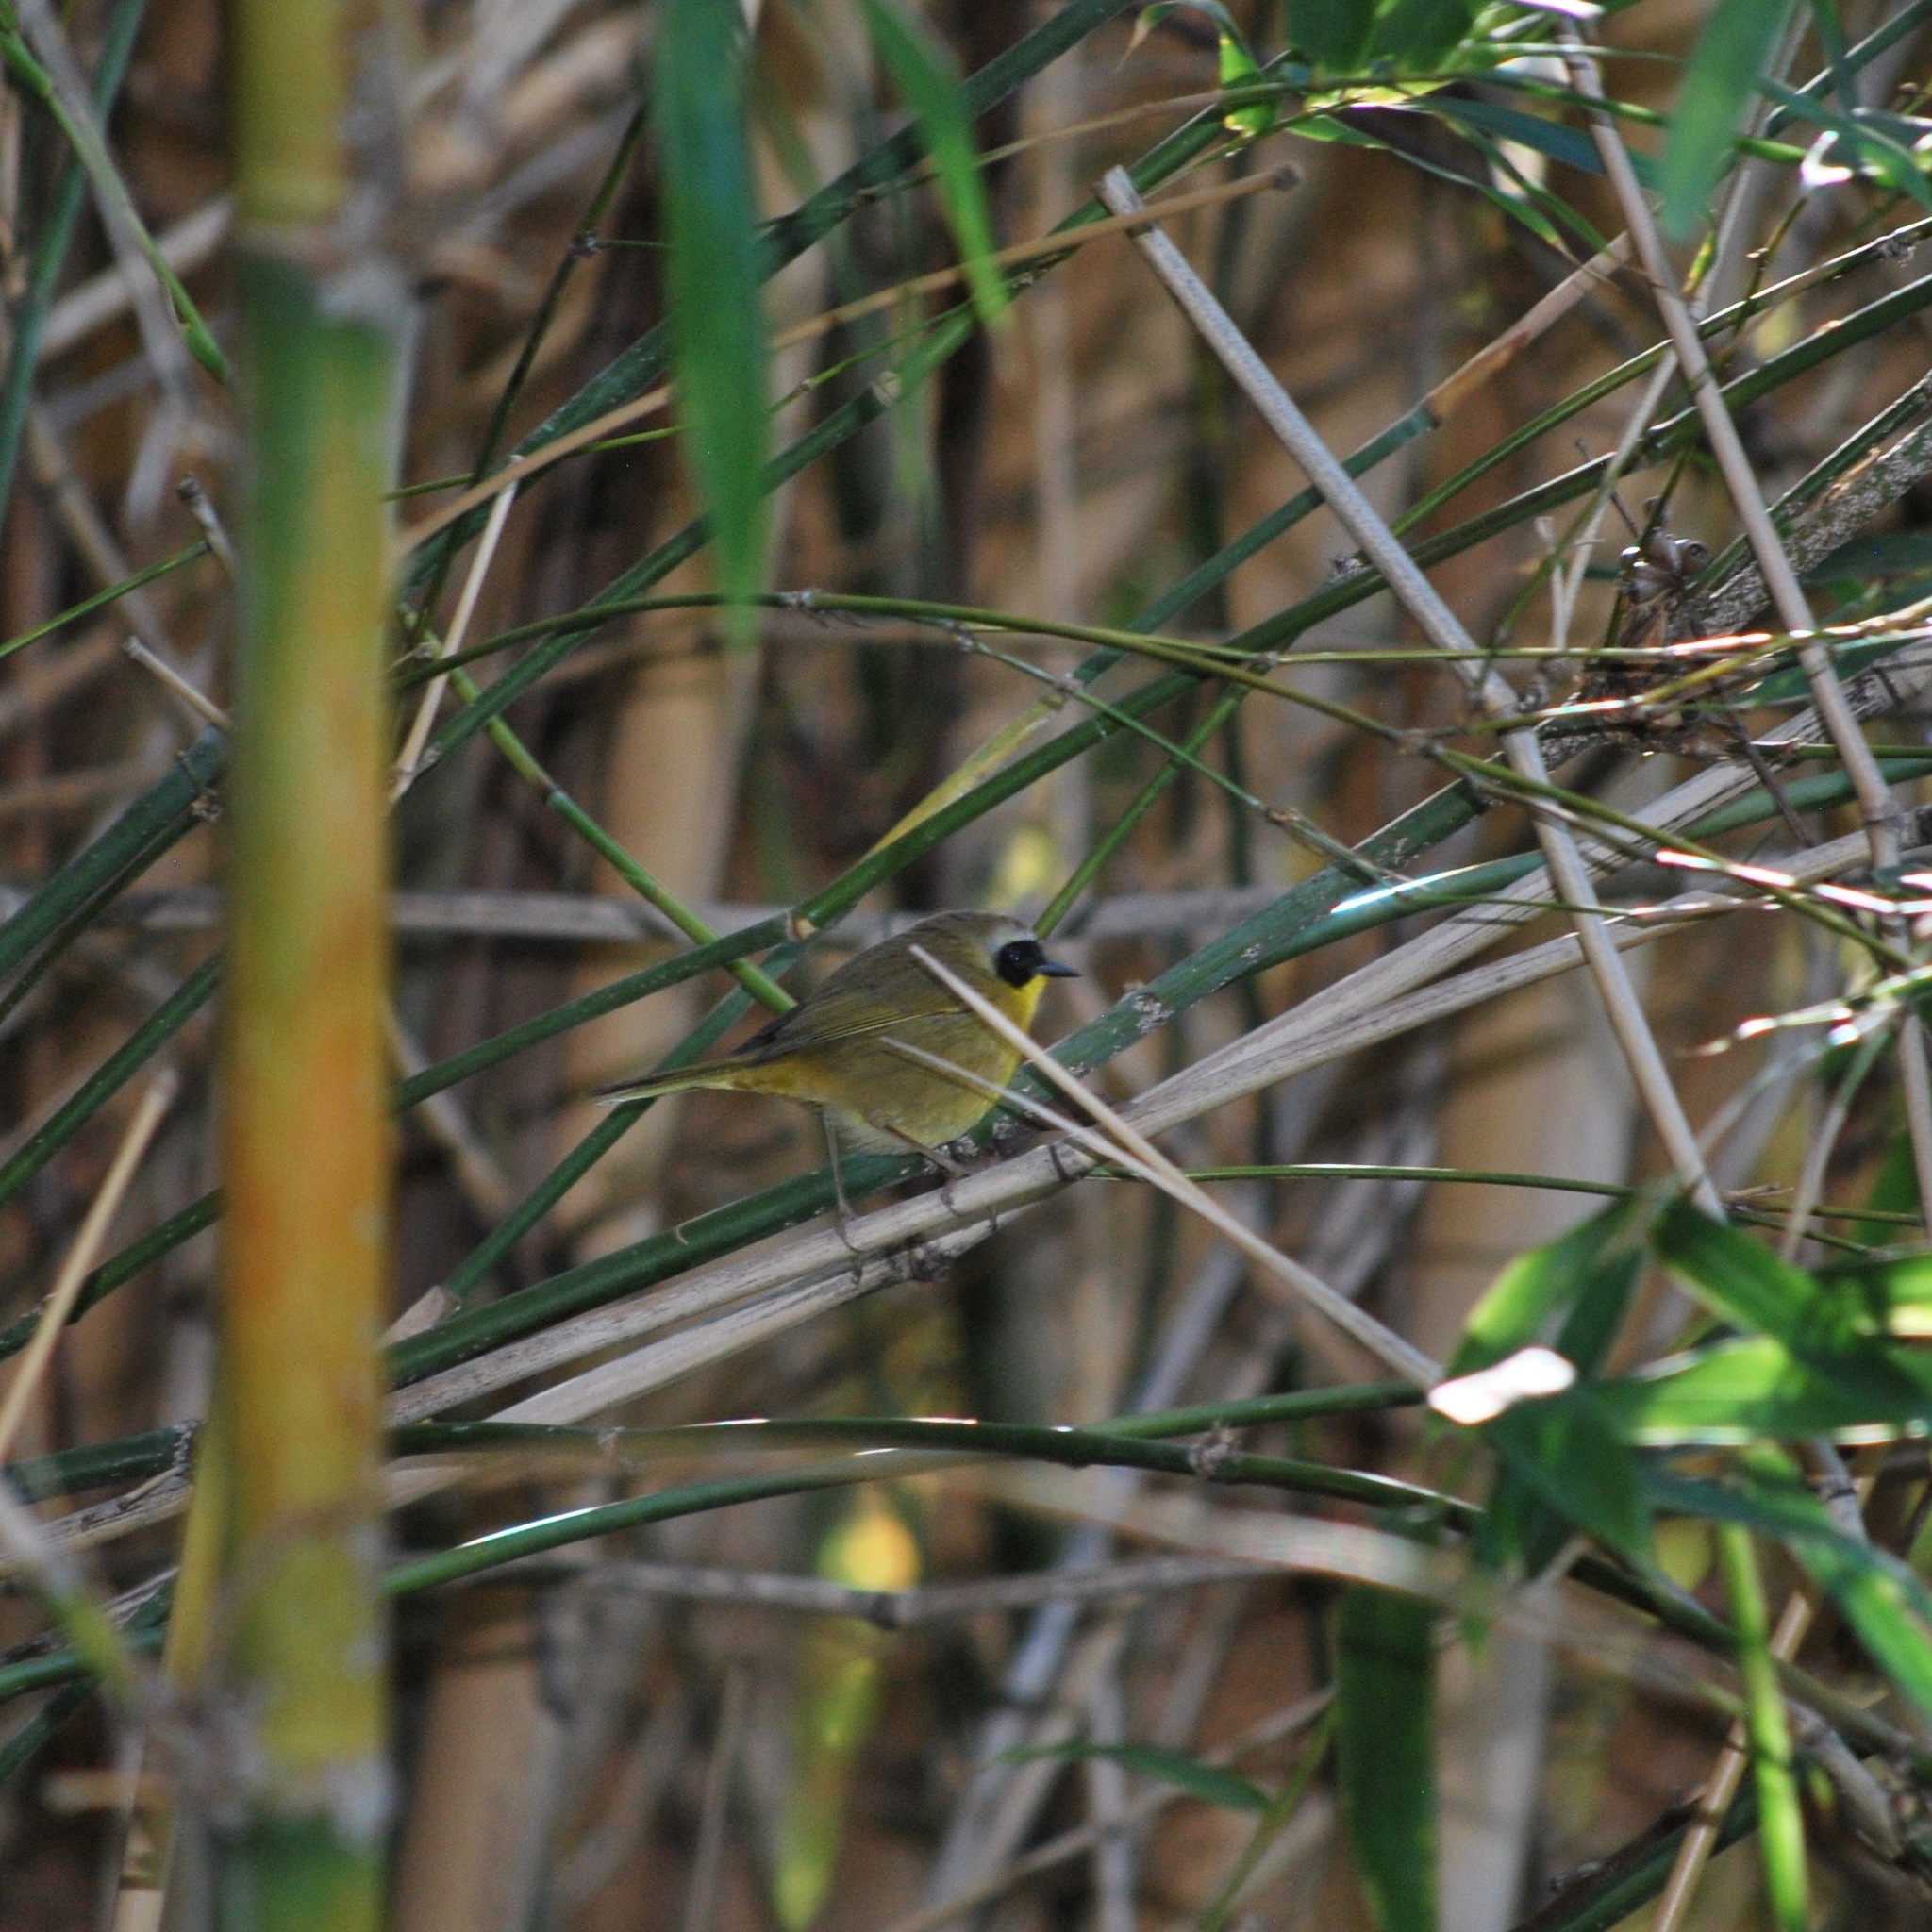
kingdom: Animalia
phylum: Chordata
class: Aves
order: Passeriformes
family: Parulidae
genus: Geothlypis
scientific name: Geothlypis trichas
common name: Common yellowthroat
